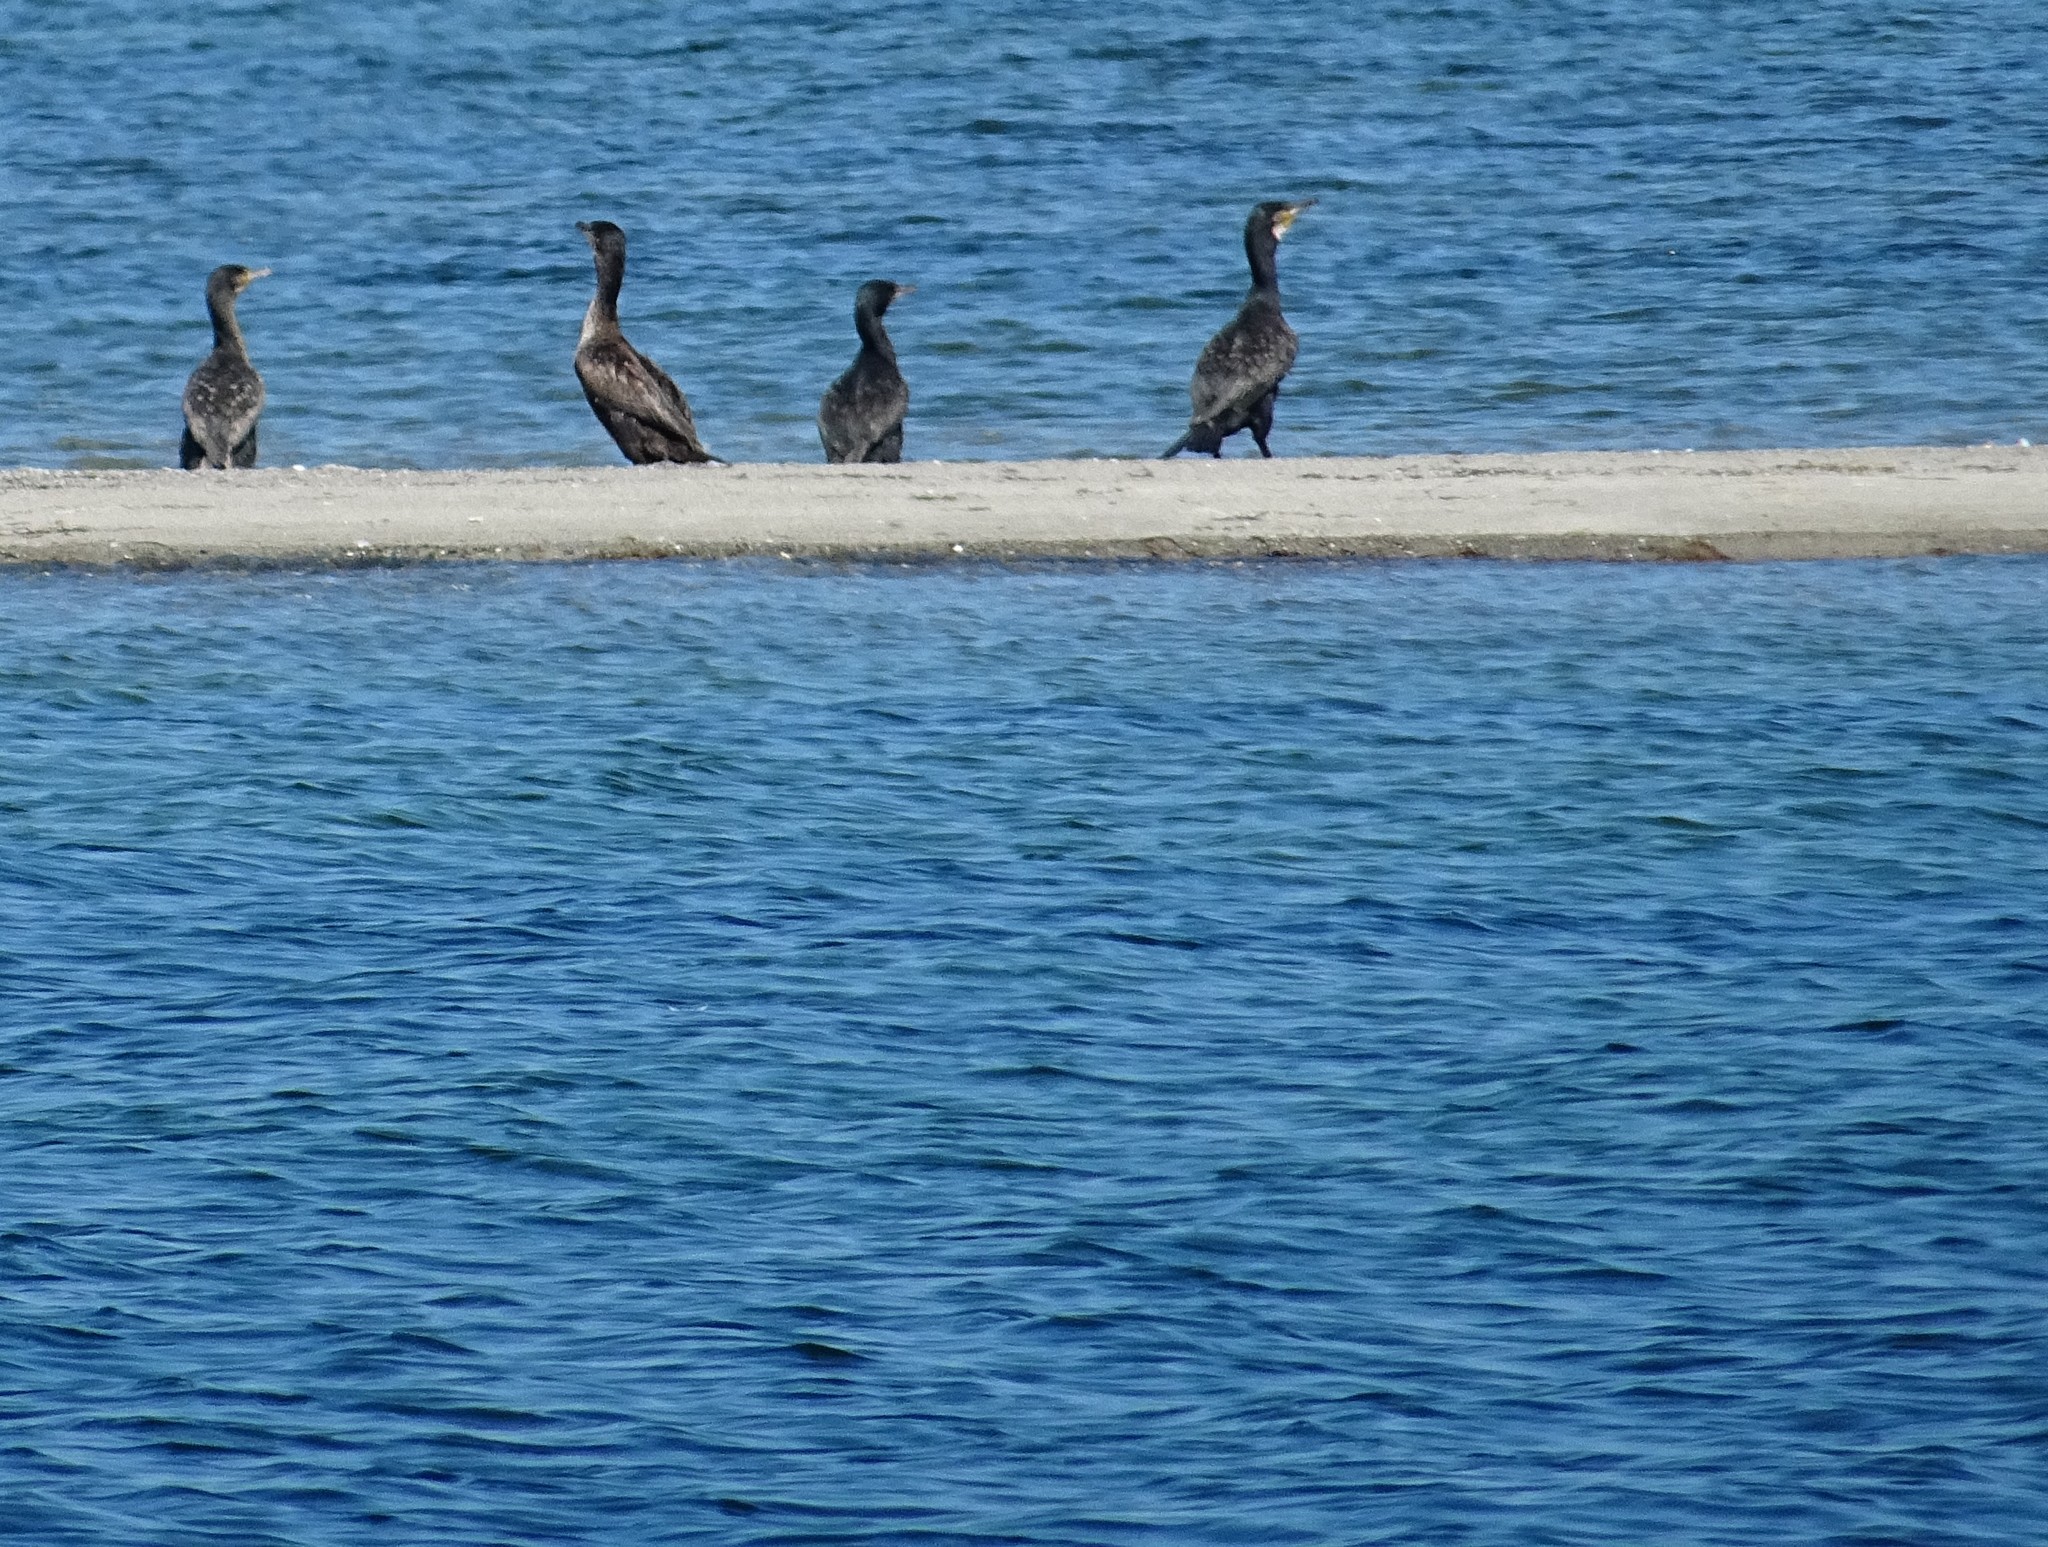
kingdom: Animalia
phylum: Chordata
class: Aves
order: Suliformes
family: Phalacrocoracidae
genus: Phalacrocorax
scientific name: Phalacrocorax carbo
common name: Great cormorant
